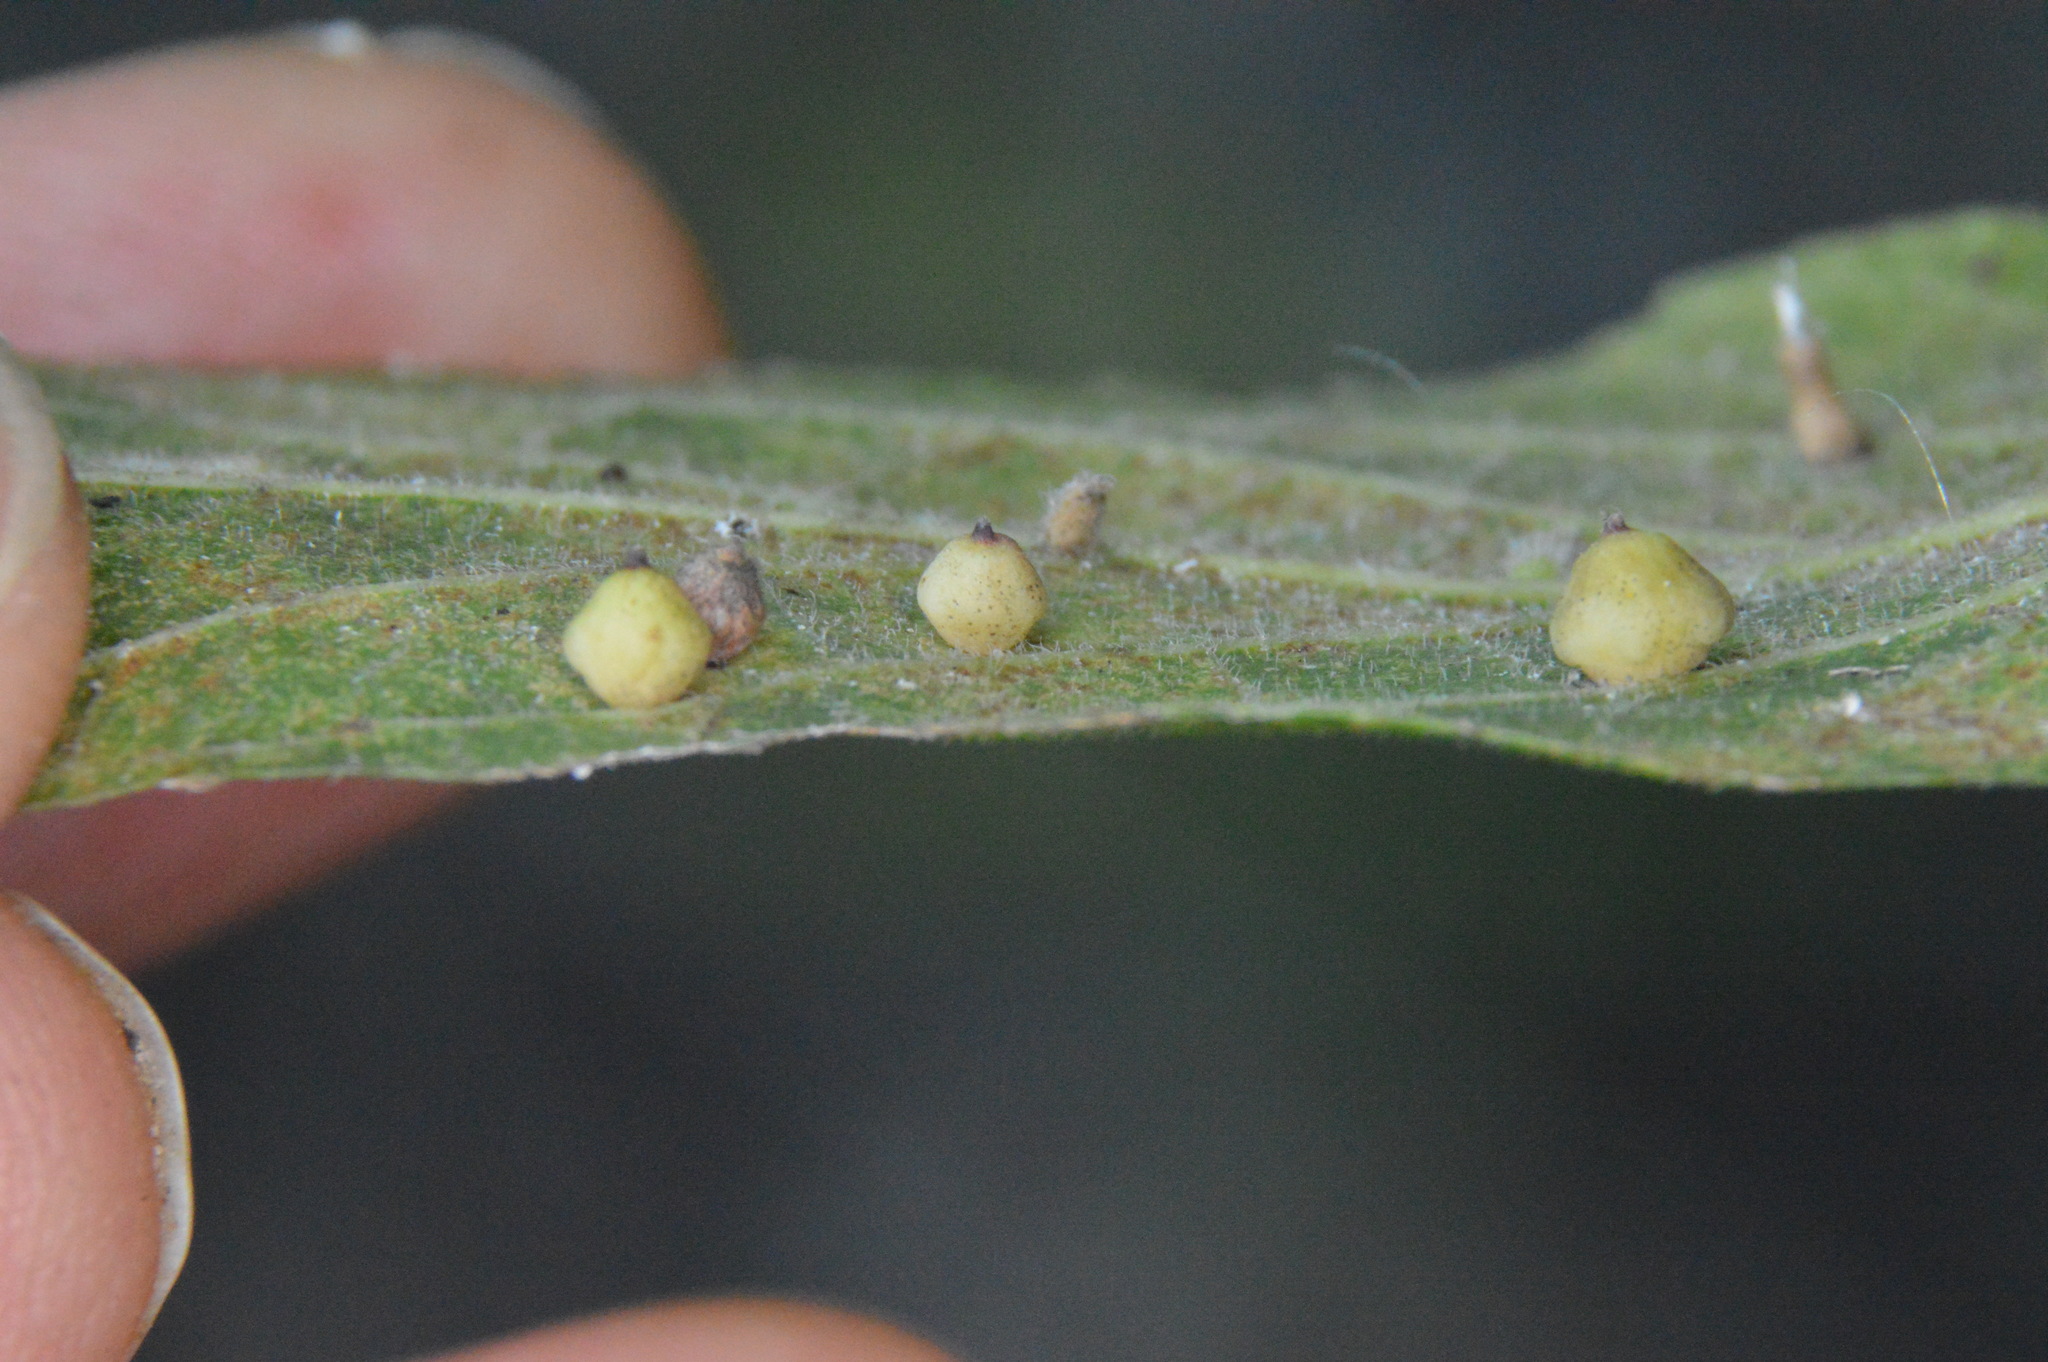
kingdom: Animalia
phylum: Arthropoda
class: Insecta
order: Diptera
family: Cecidomyiidae
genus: Celticecis
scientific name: Celticecis globosa
